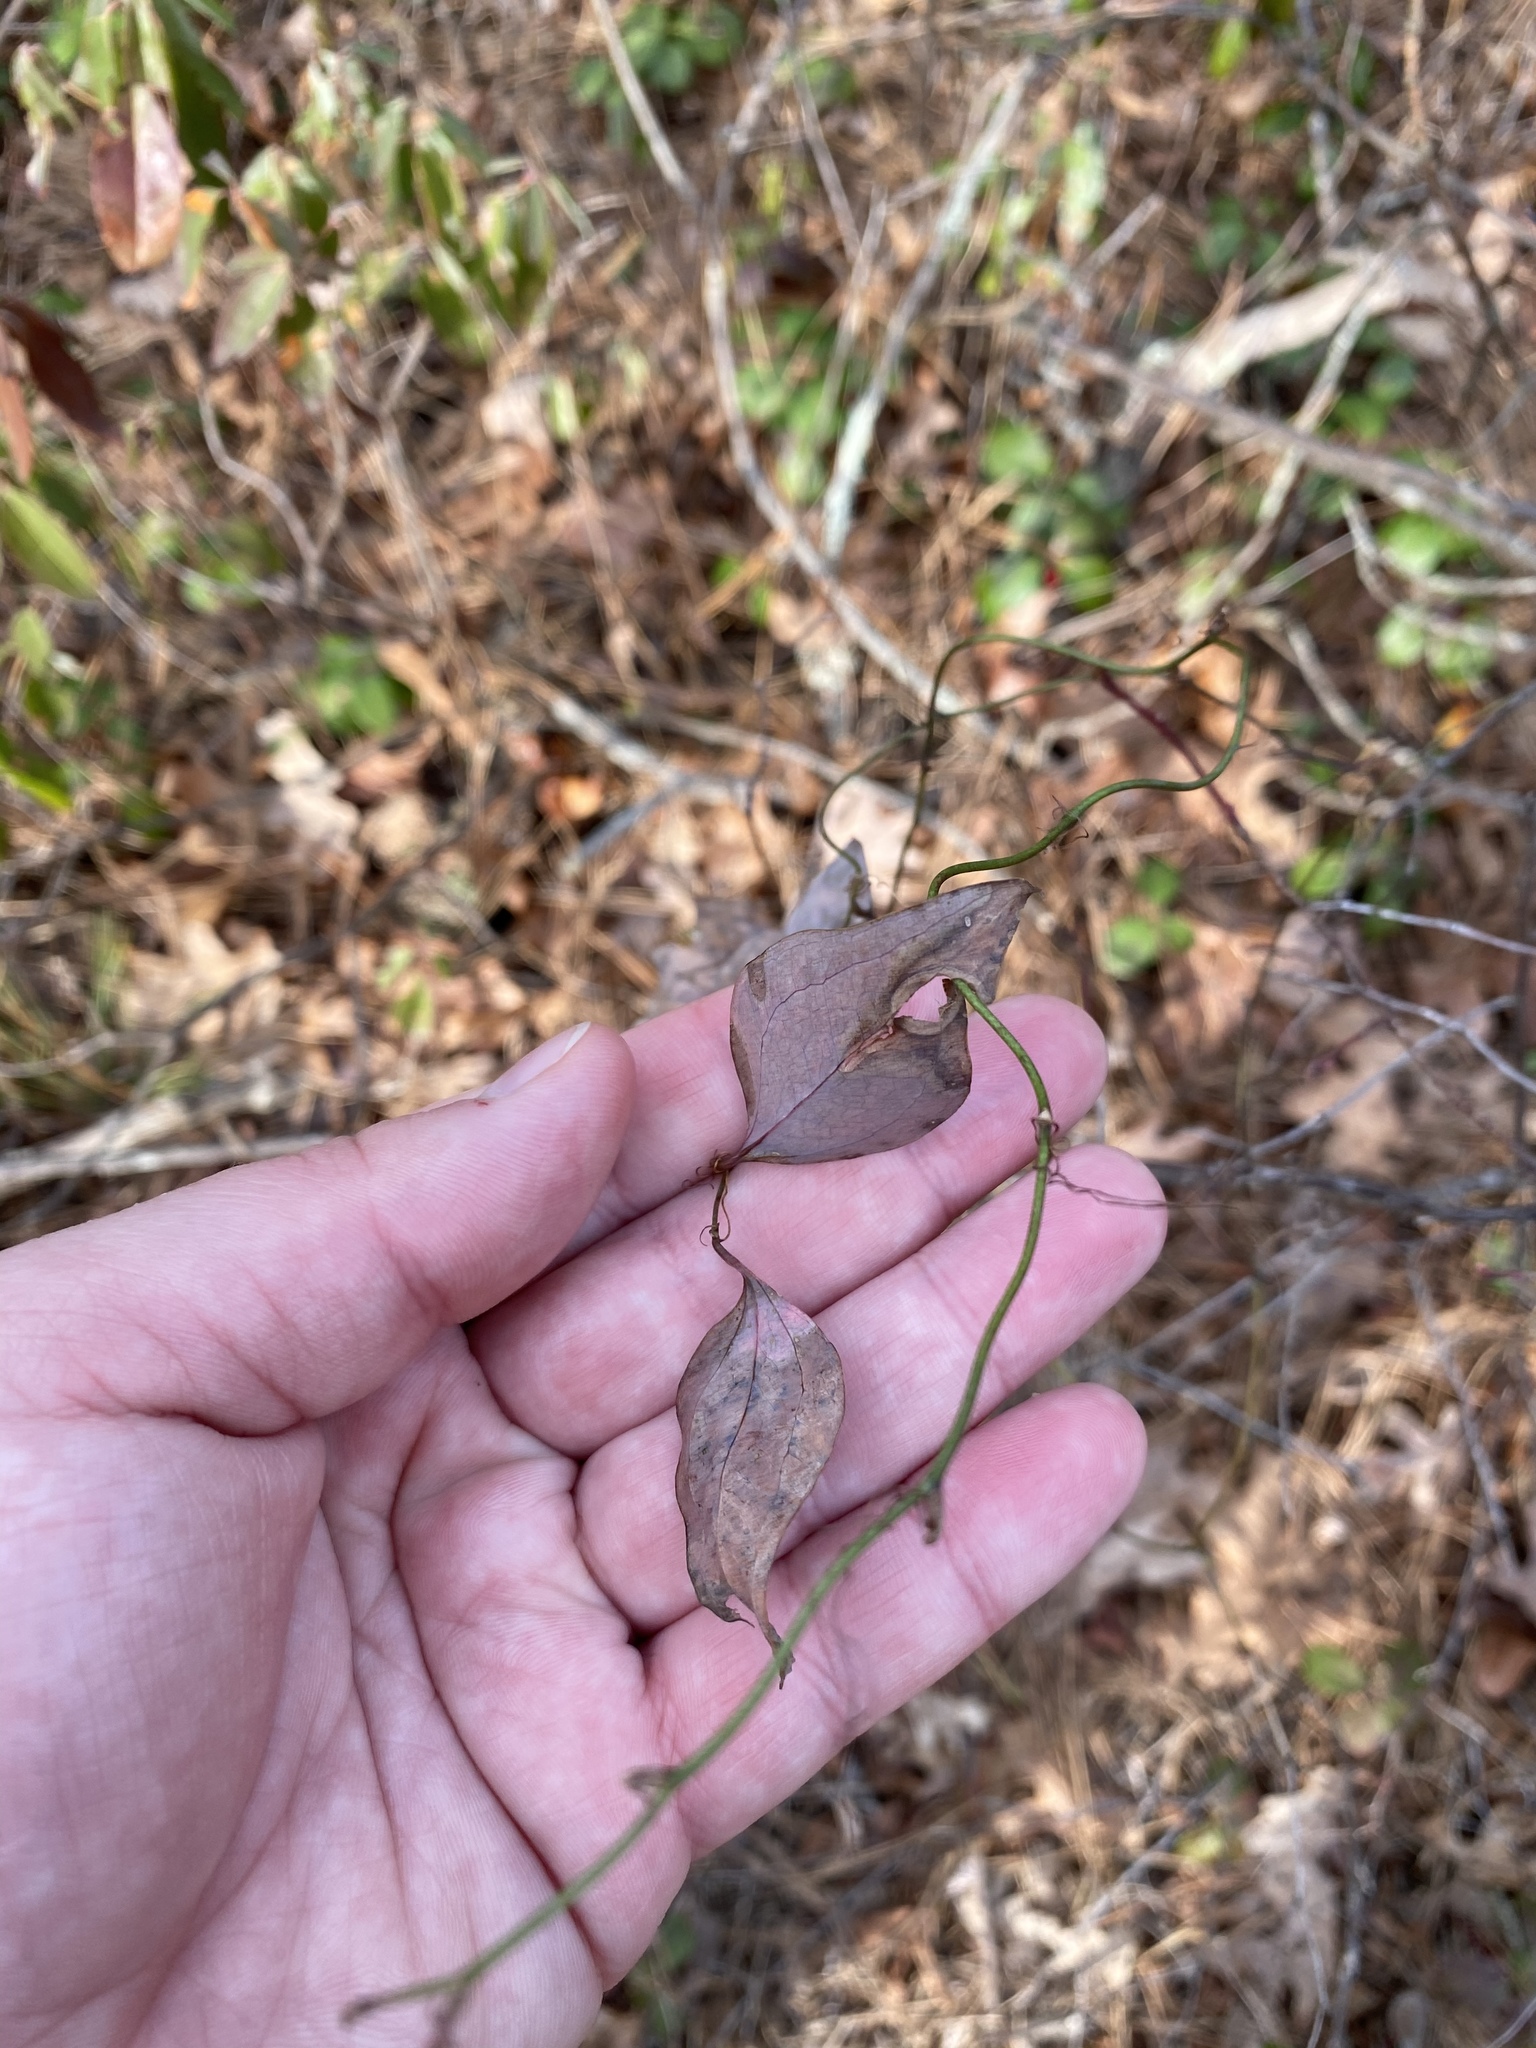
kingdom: Plantae
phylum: Tracheophyta
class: Liliopsida
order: Liliales
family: Smilacaceae
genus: Smilax
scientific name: Smilax glauca
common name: Cat greenbrier
